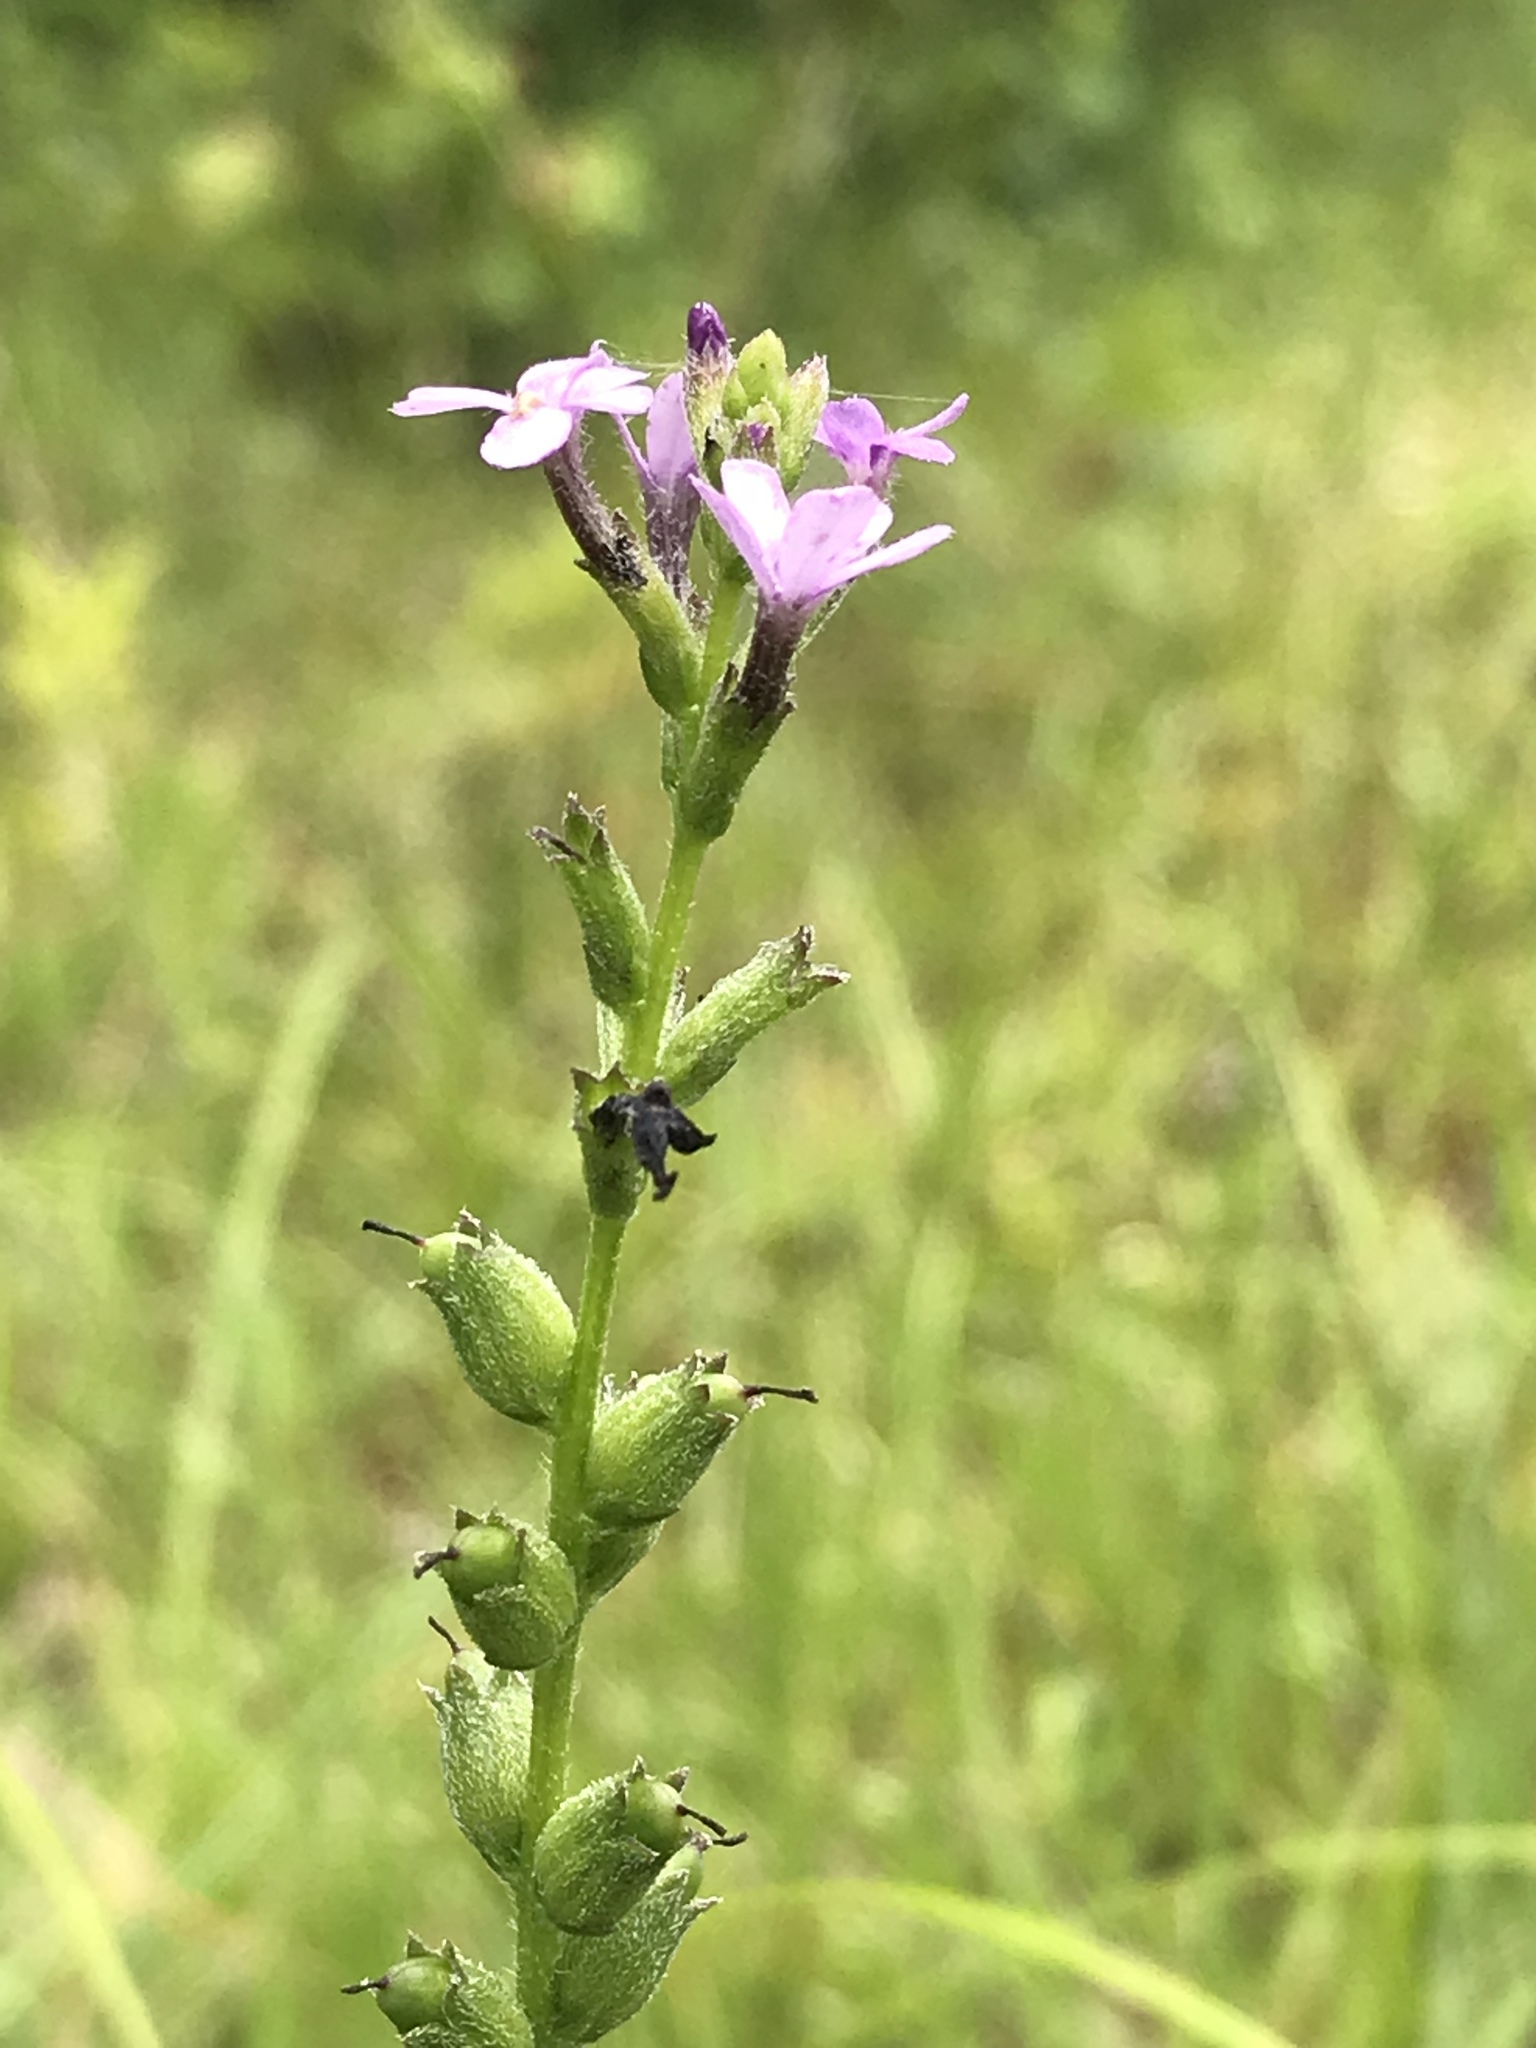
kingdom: Plantae
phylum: Tracheophyta
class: Magnoliopsida
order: Lamiales
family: Orobanchaceae
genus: Buchnera
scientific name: Buchnera floridana
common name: Florida bluehearts
